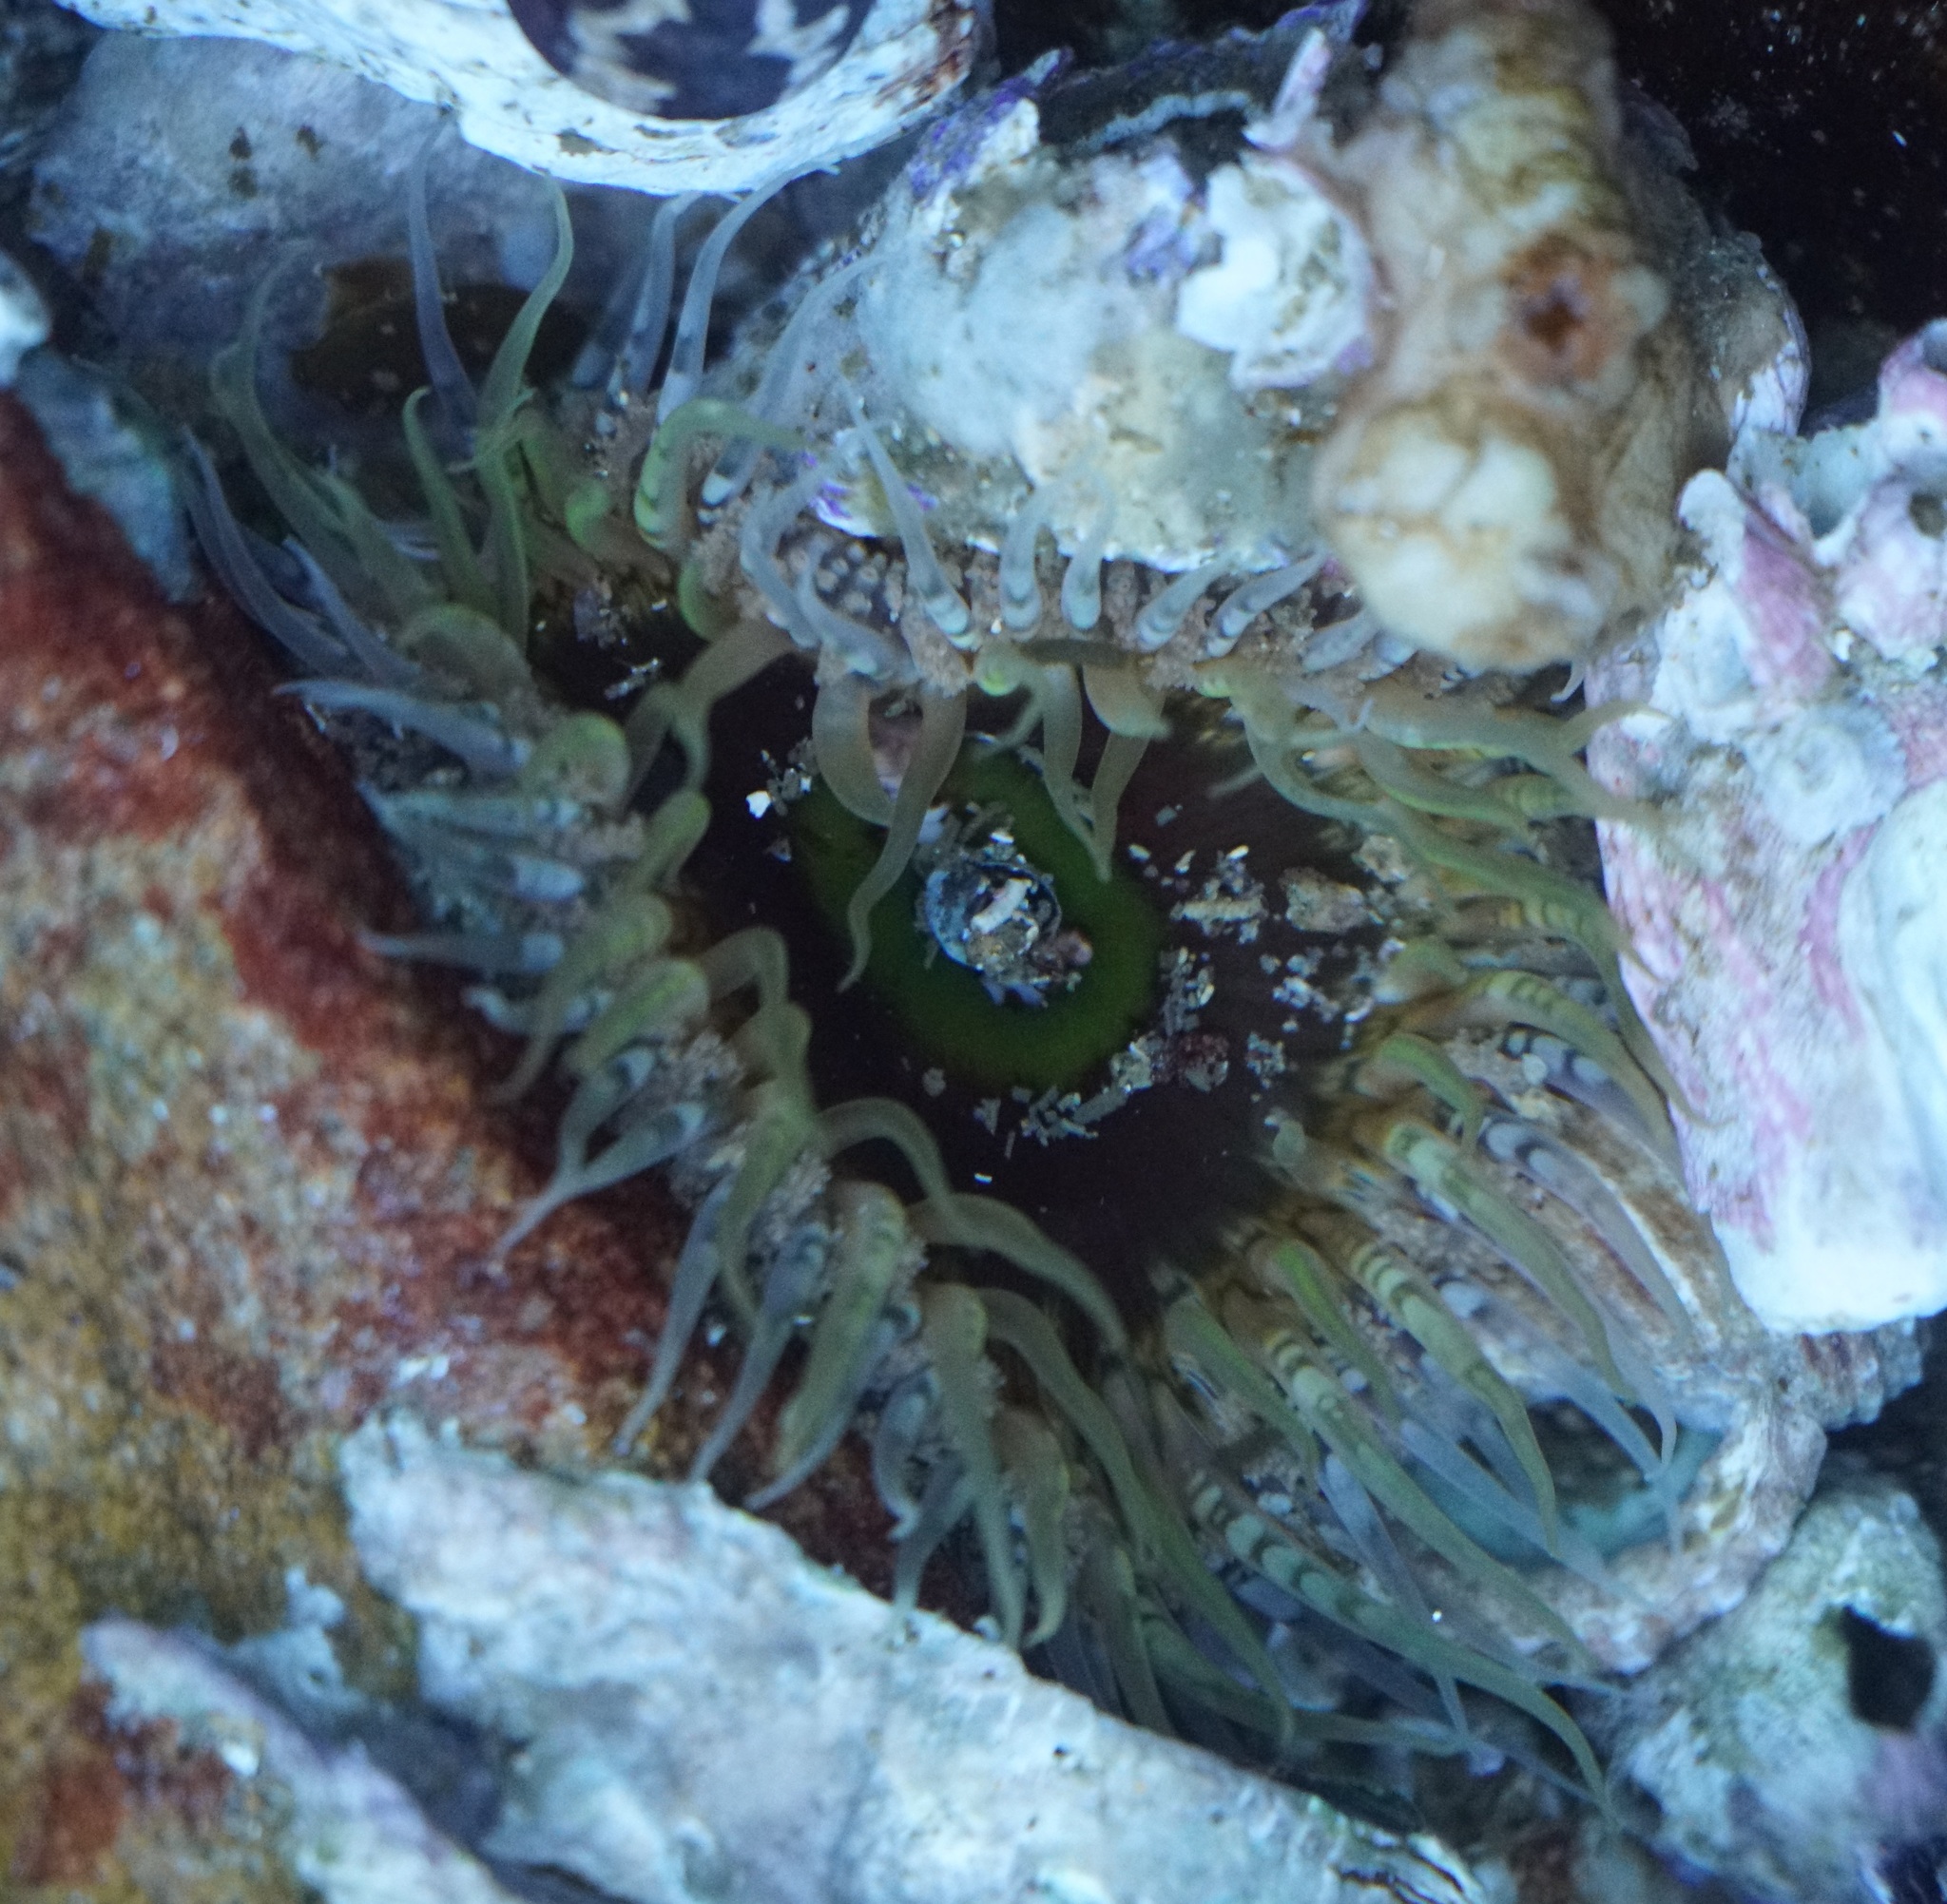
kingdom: Animalia
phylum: Cnidaria
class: Anthozoa
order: Actiniaria
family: Actiniidae
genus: Oulactis
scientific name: Oulactis muscosa
